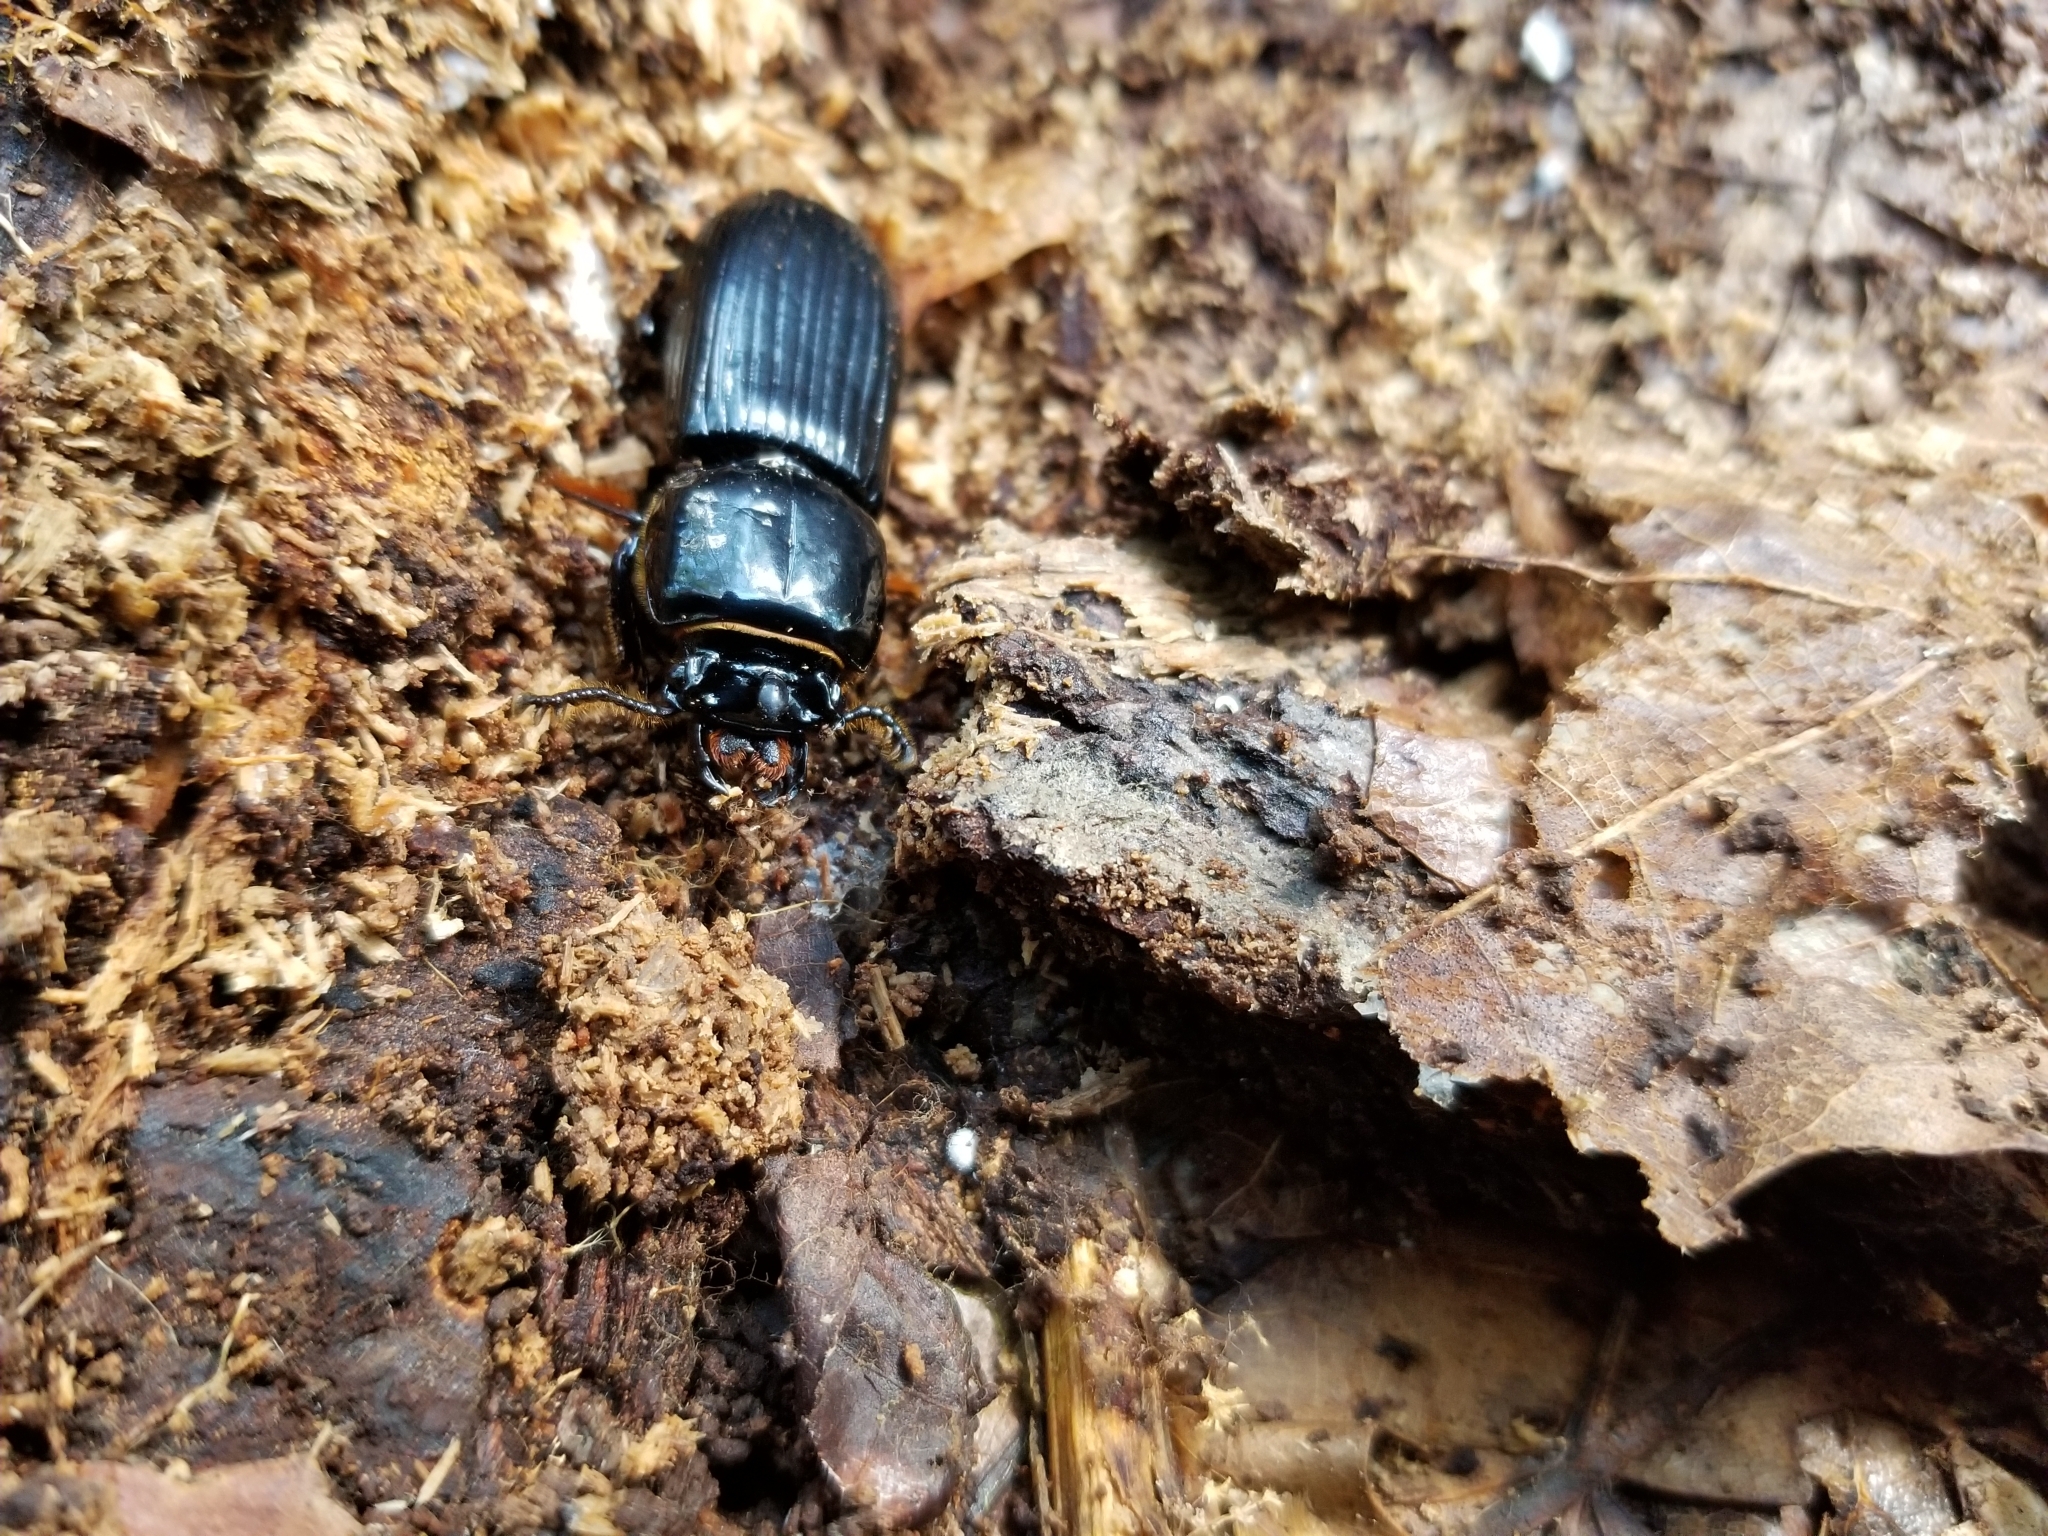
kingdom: Animalia
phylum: Arthropoda
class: Insecta
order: Coleoptera
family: Passalidae
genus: Odontotaenius
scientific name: Odontotaenius disjunctus
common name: Patent leather beetle
